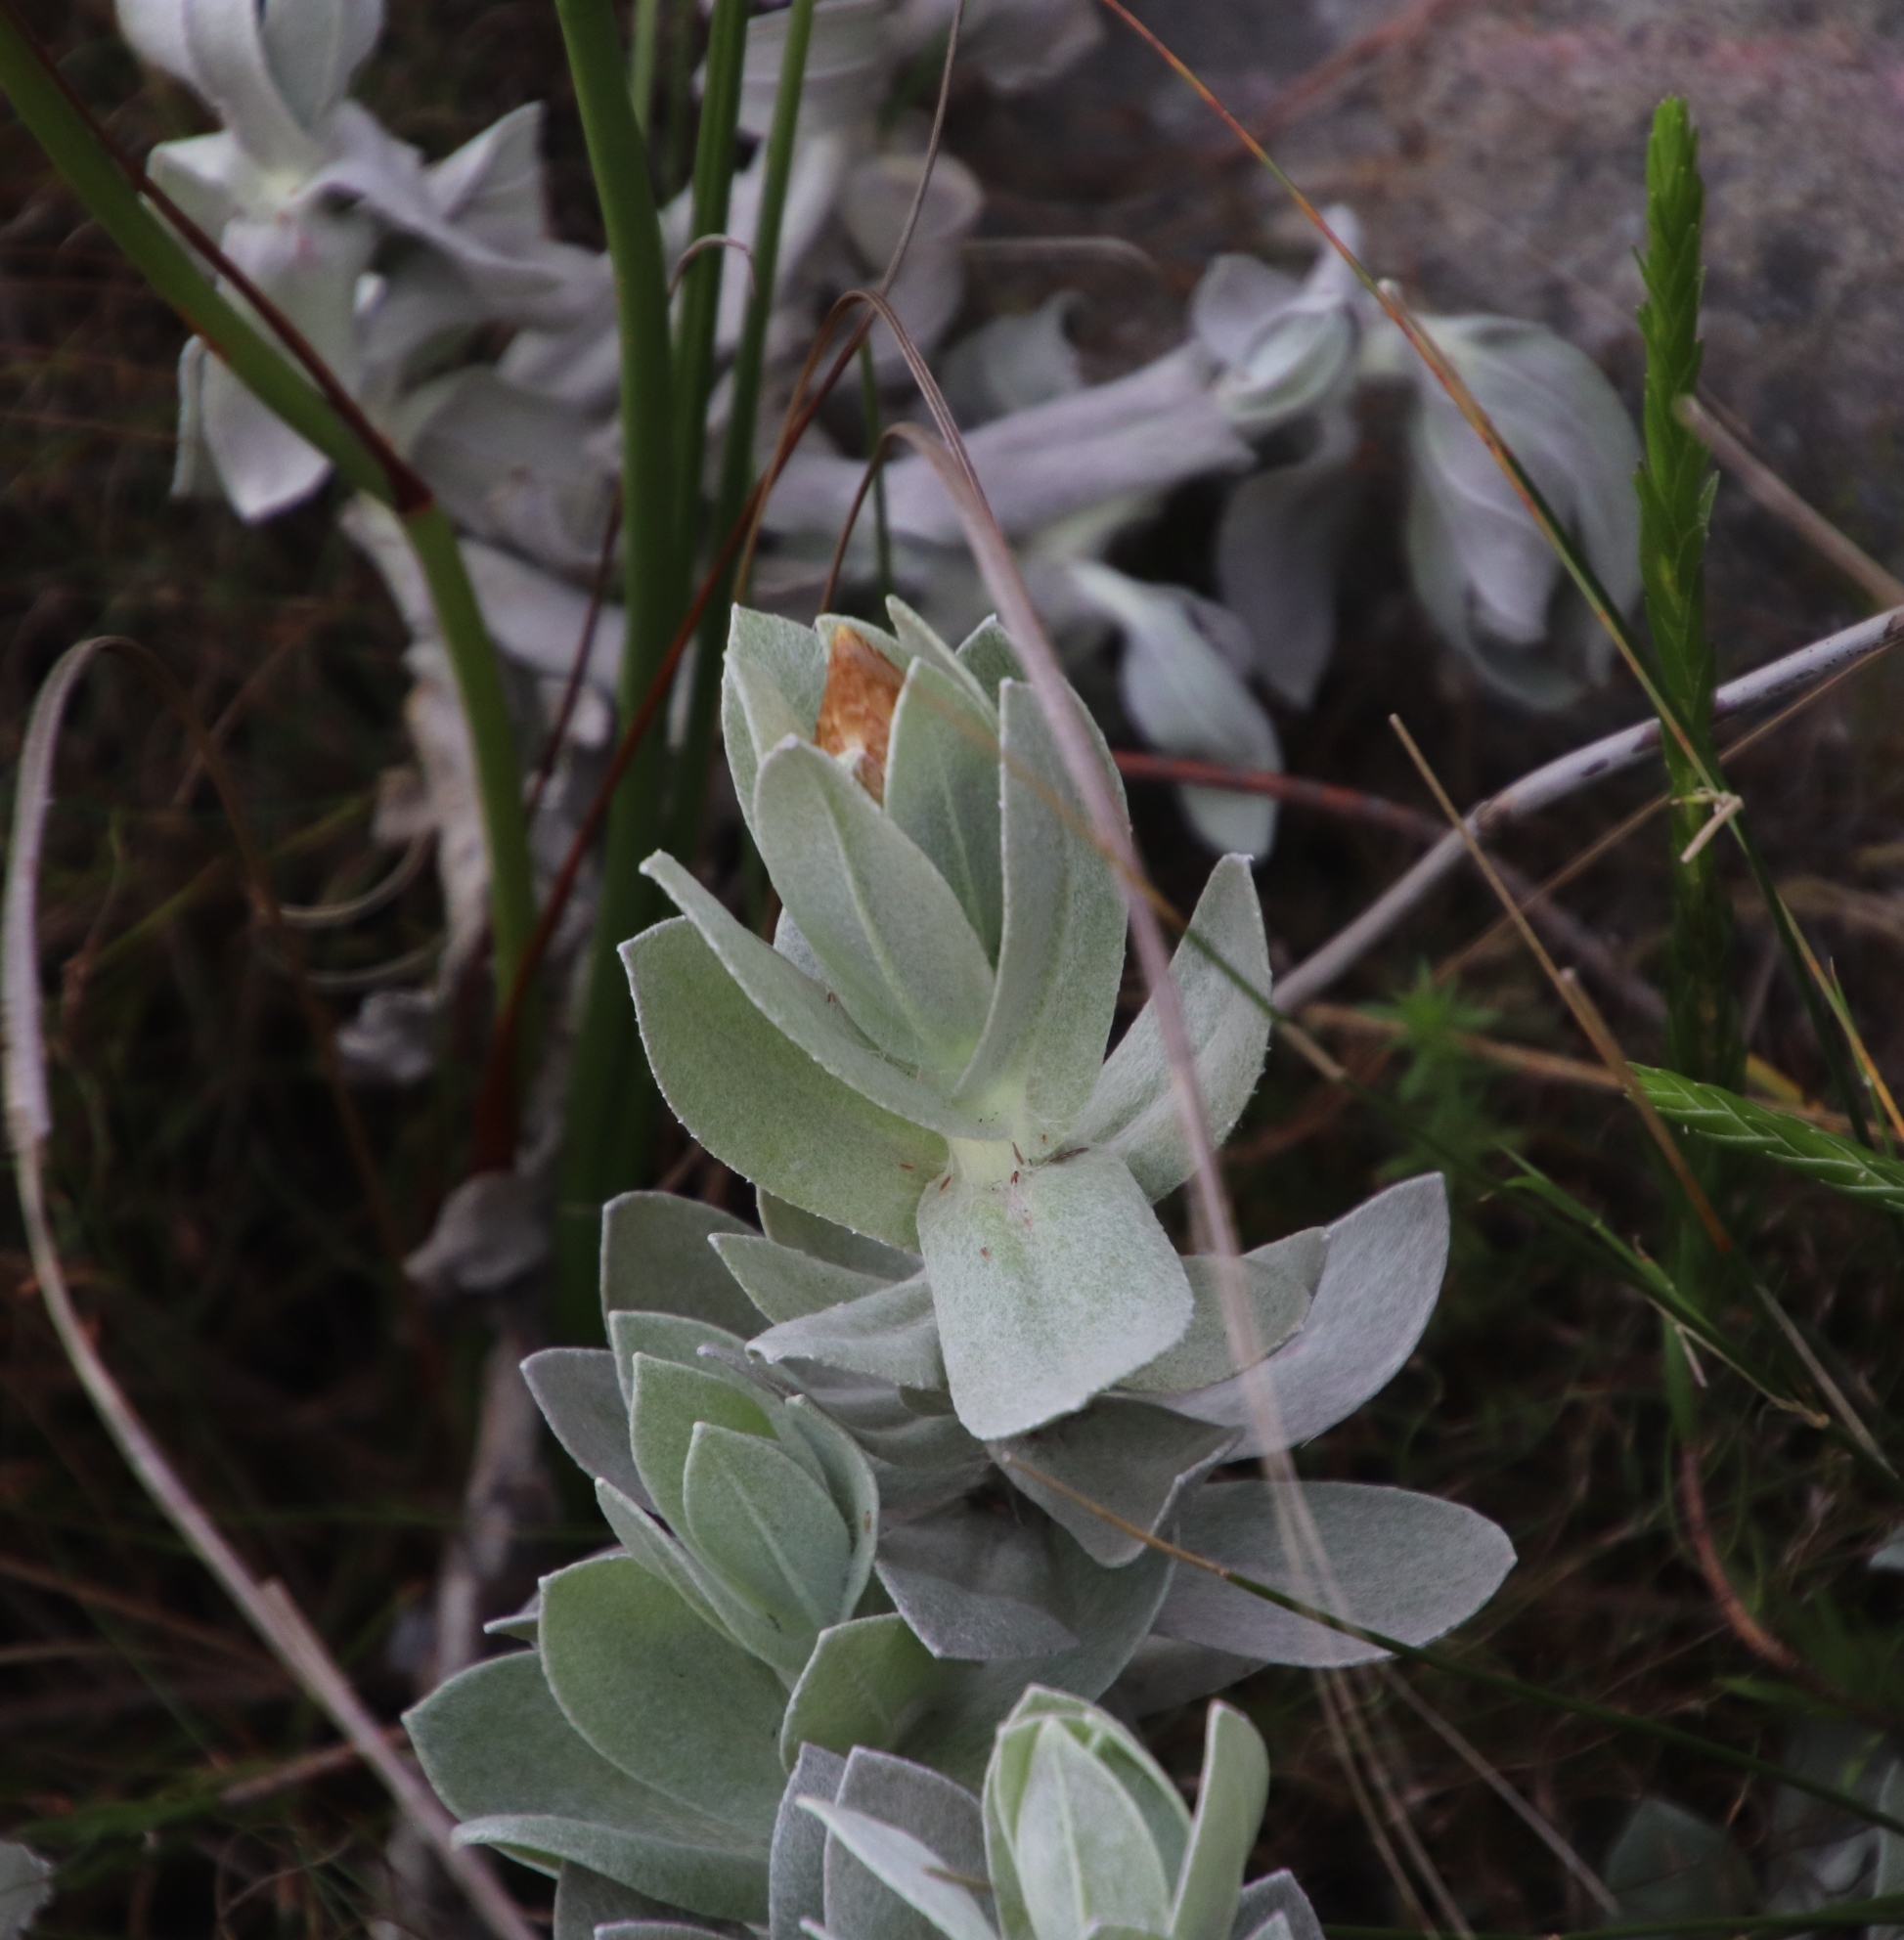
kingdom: Plantae
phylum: Tracheophyta
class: Magnoliopsida
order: Asterales
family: Asteraceae
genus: Syncarpha
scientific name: Syncarpha speciosissima
